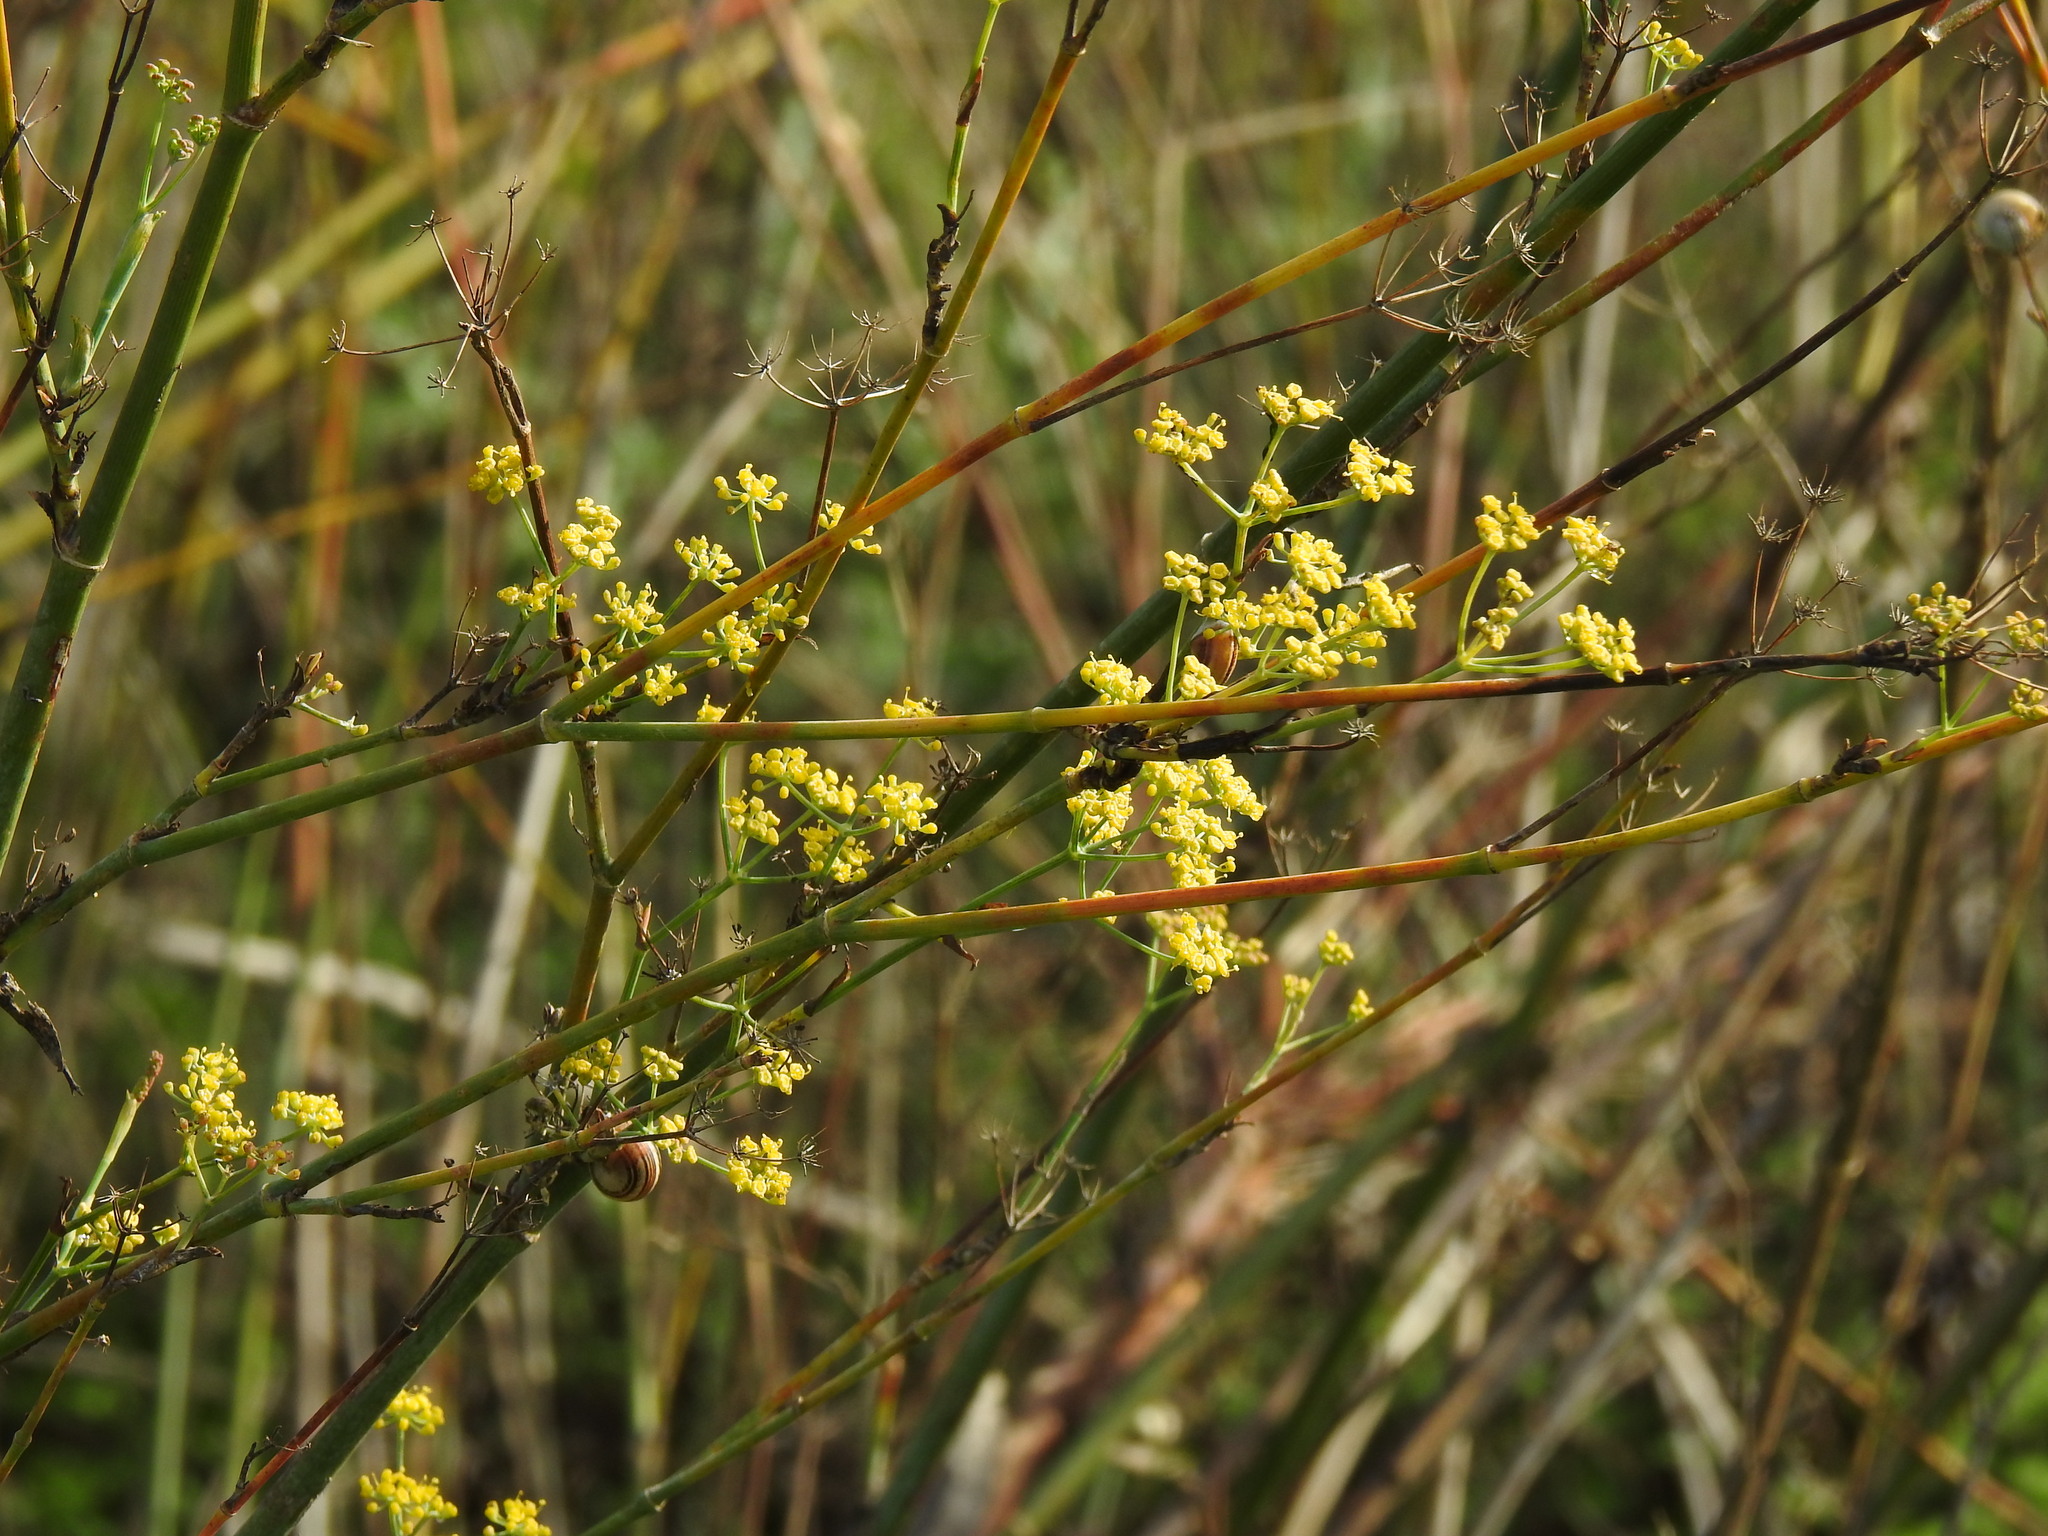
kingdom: Plantae
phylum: Tracheophyta
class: Magnoliopsida
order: Apiales
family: Apiaceae
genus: Foeniculum
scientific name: Foeniculum vulgare
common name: Fennel
